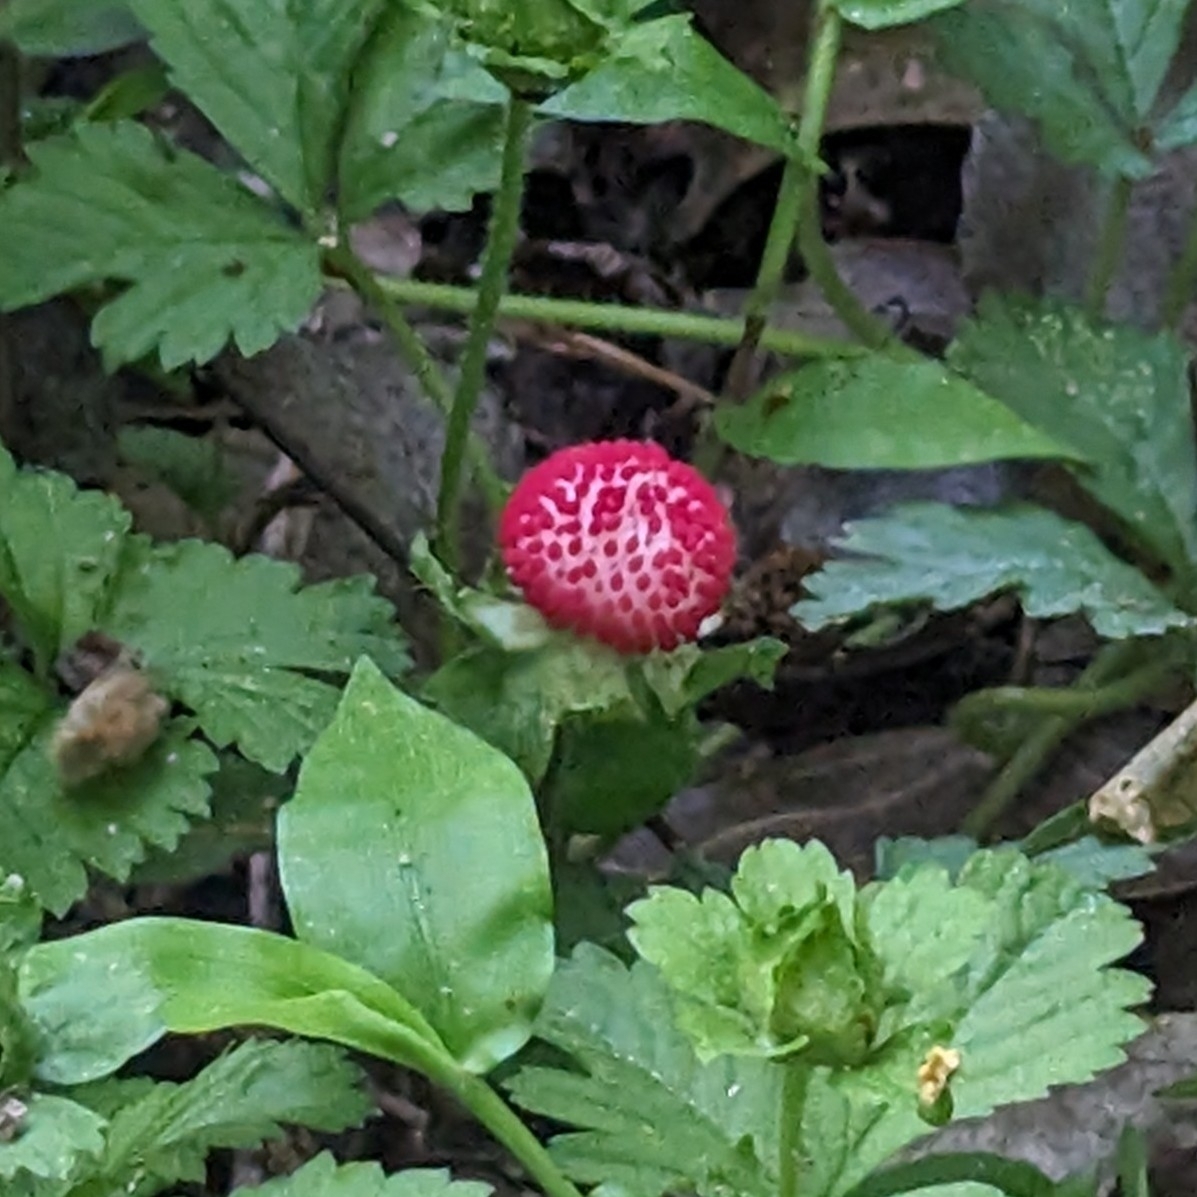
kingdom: Plantae
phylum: Tracheophyta
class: Magnoliopsida
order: Rosales
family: Rosaceae
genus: Potentilla
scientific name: Potentilla indica
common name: Yellow-flowered strawberry
